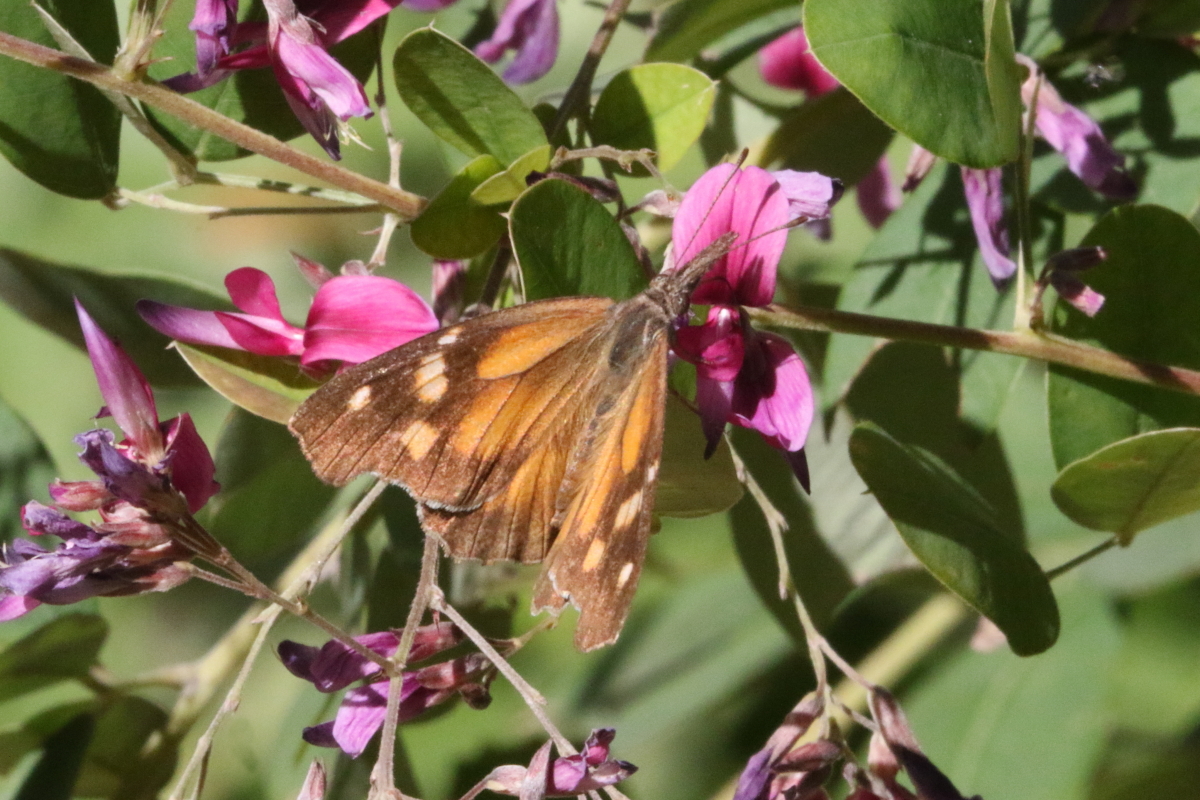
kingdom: Animalia
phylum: Arthropoda
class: Insecta
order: Lepidoptera
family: Nymphalidae
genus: Libytheana
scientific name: Libytheana carinenta
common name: American snout
